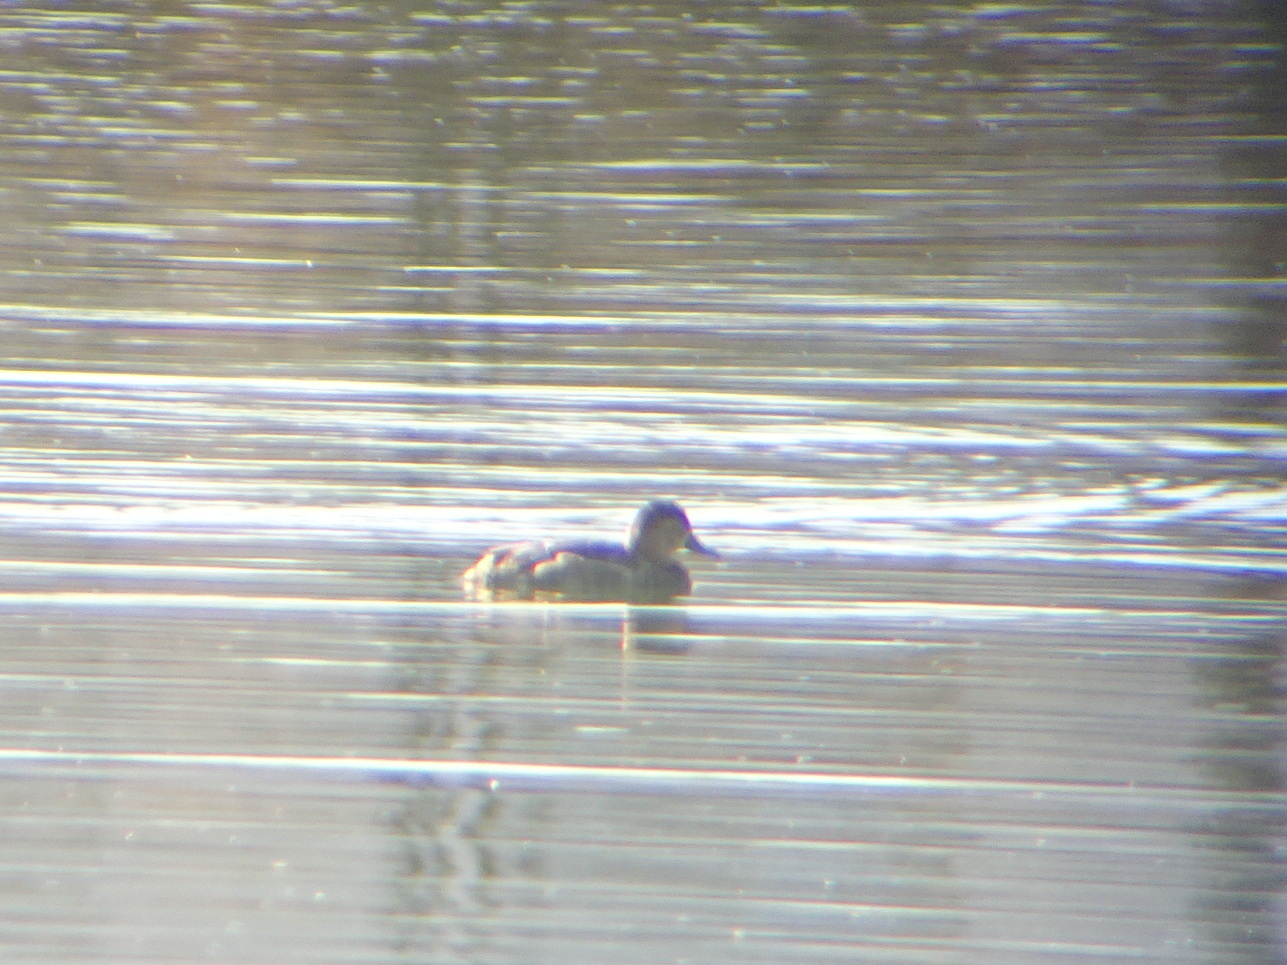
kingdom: Animalia
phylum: Chordata
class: Aves
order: Anseriformes
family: Anatidae
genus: Aythya
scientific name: Aythya americana
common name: Redhead
